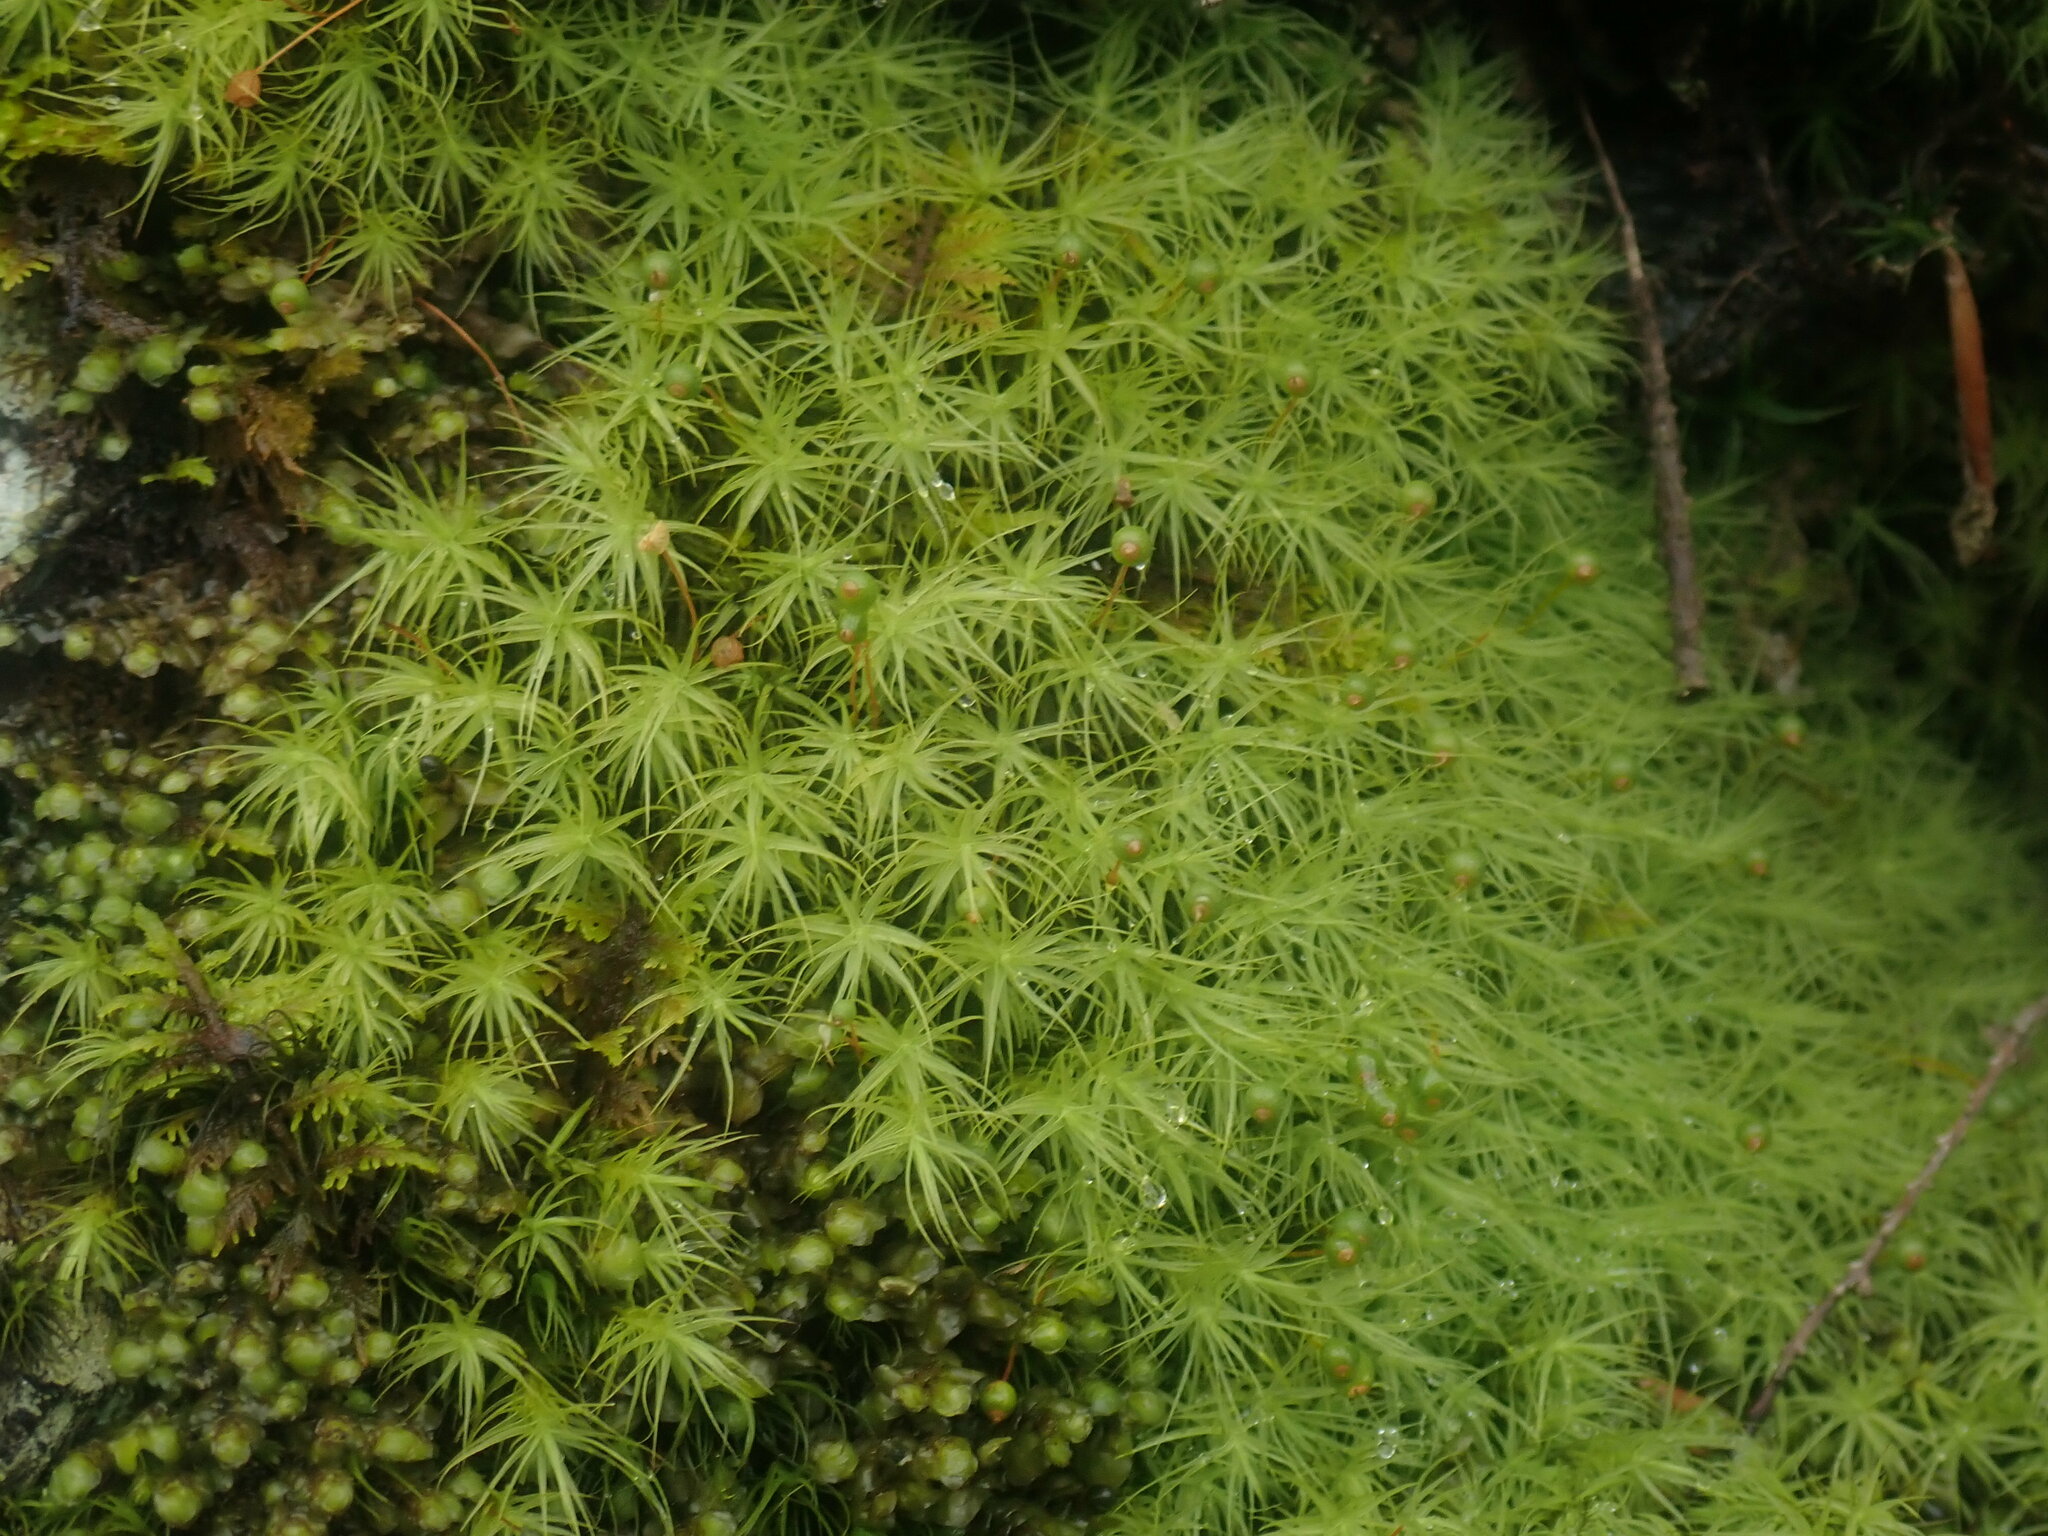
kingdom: Plantae
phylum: Bryophyta
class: Bryopsida
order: Bartramiales
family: Bartramiaceae
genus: Bartramia
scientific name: Bartramia ithyphylla
